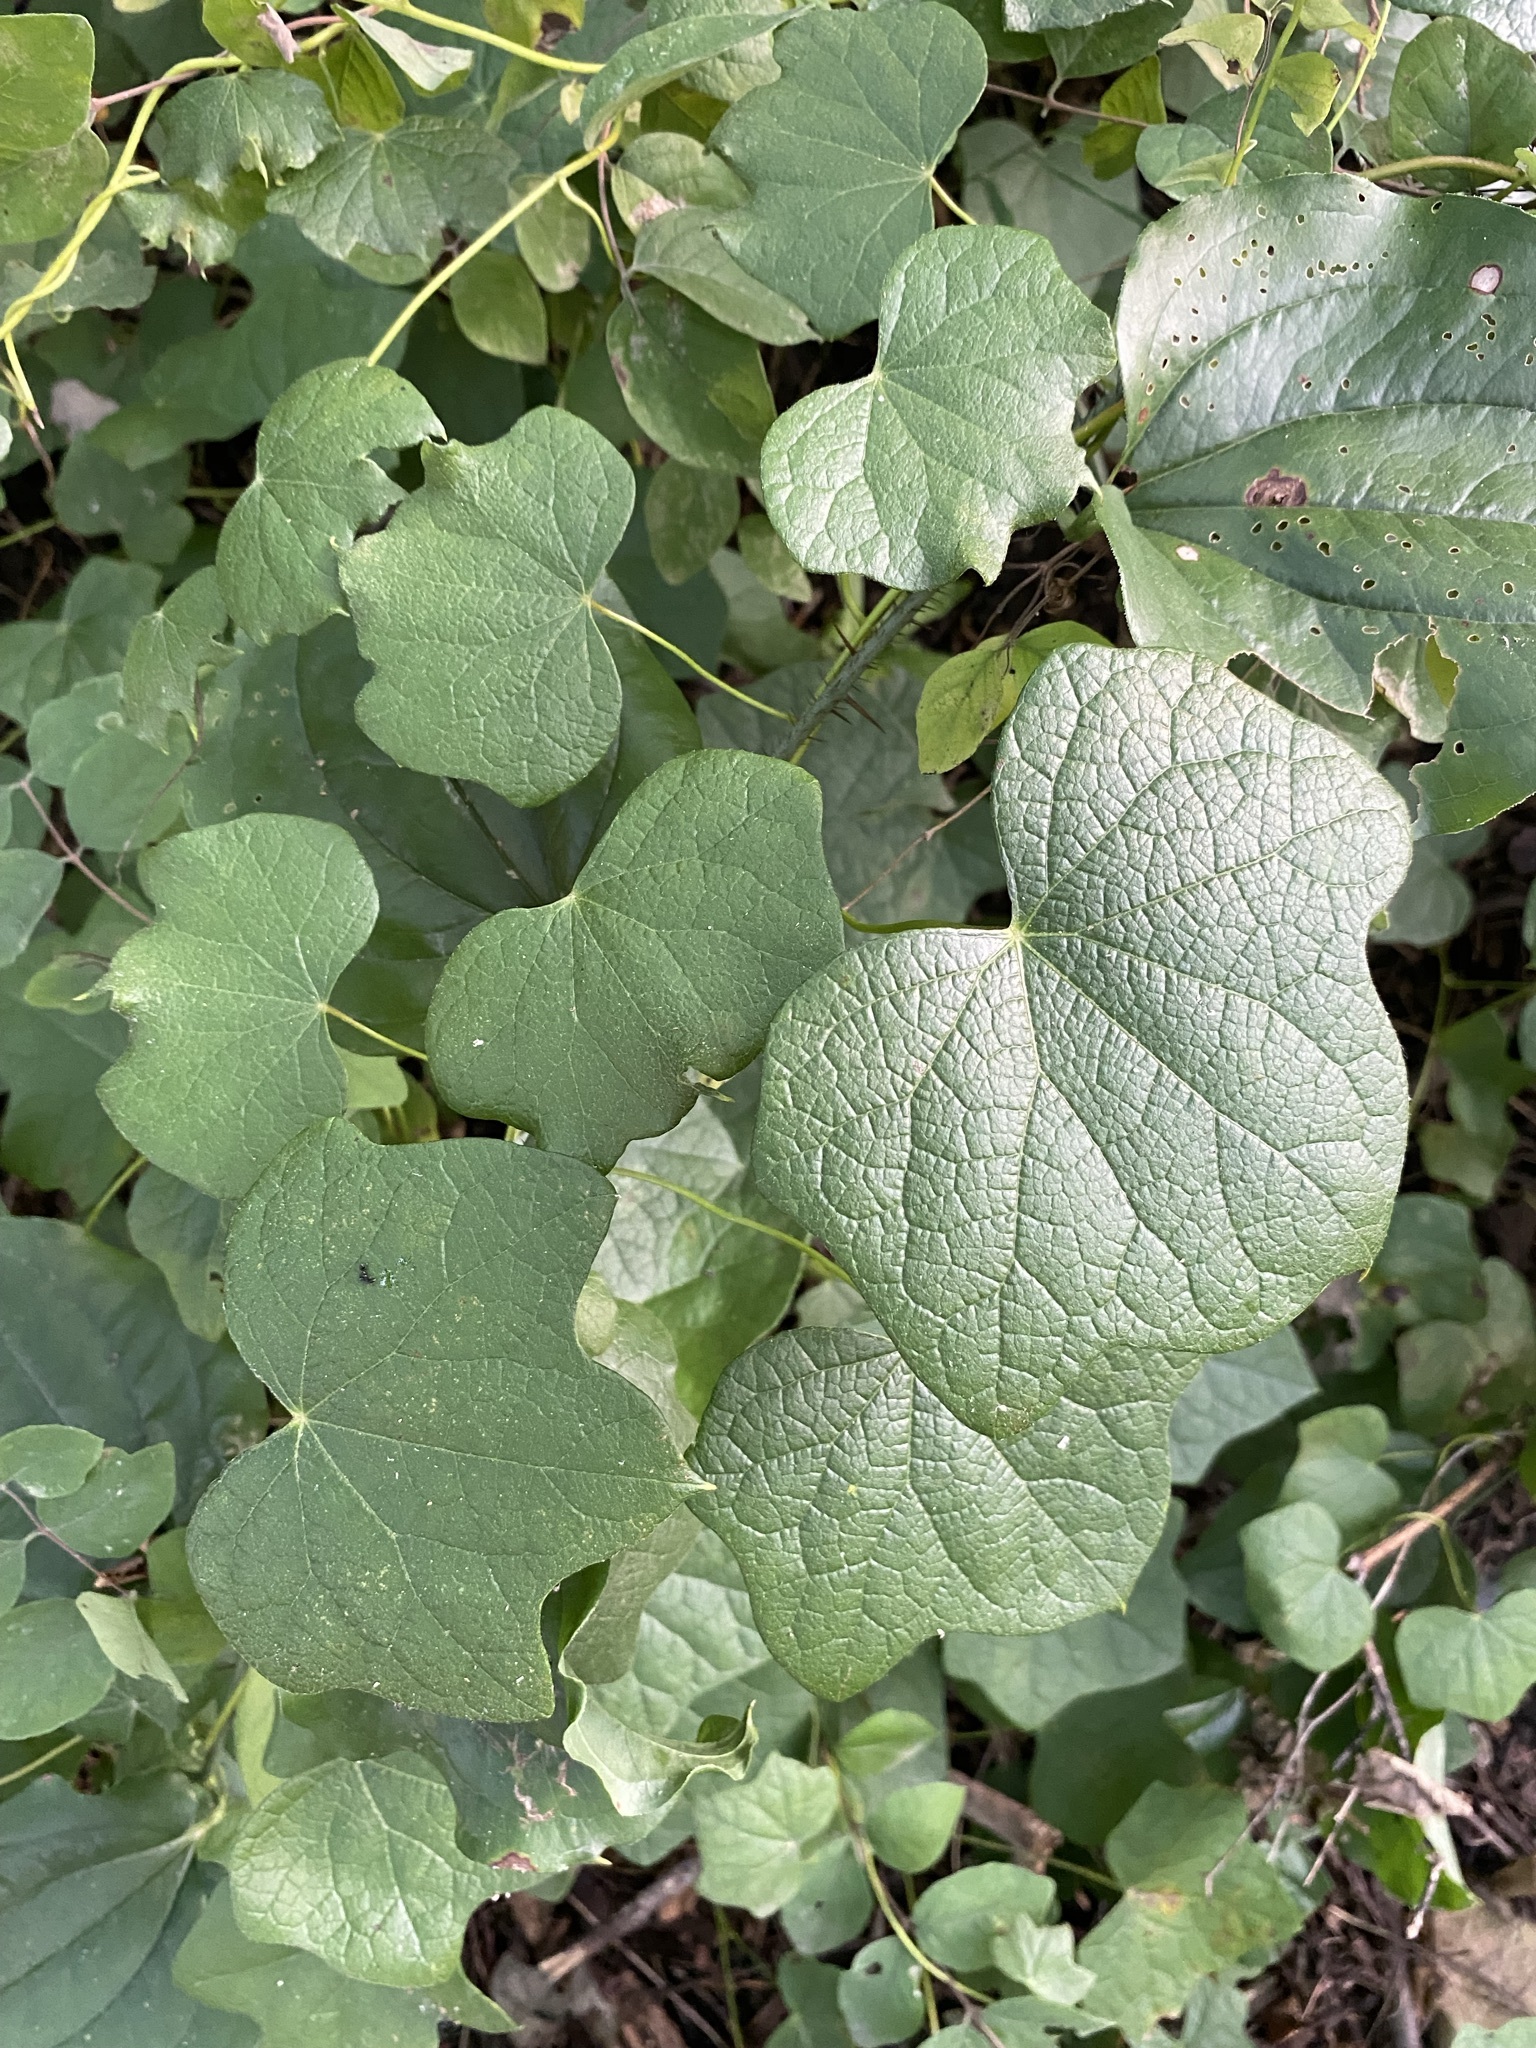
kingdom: Plantae
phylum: Tracheophyta
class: Magnoliopsida
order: Ranunculales
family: Menispermaceae
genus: Menispermum
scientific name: Menispermum canadense
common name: Moonseed
